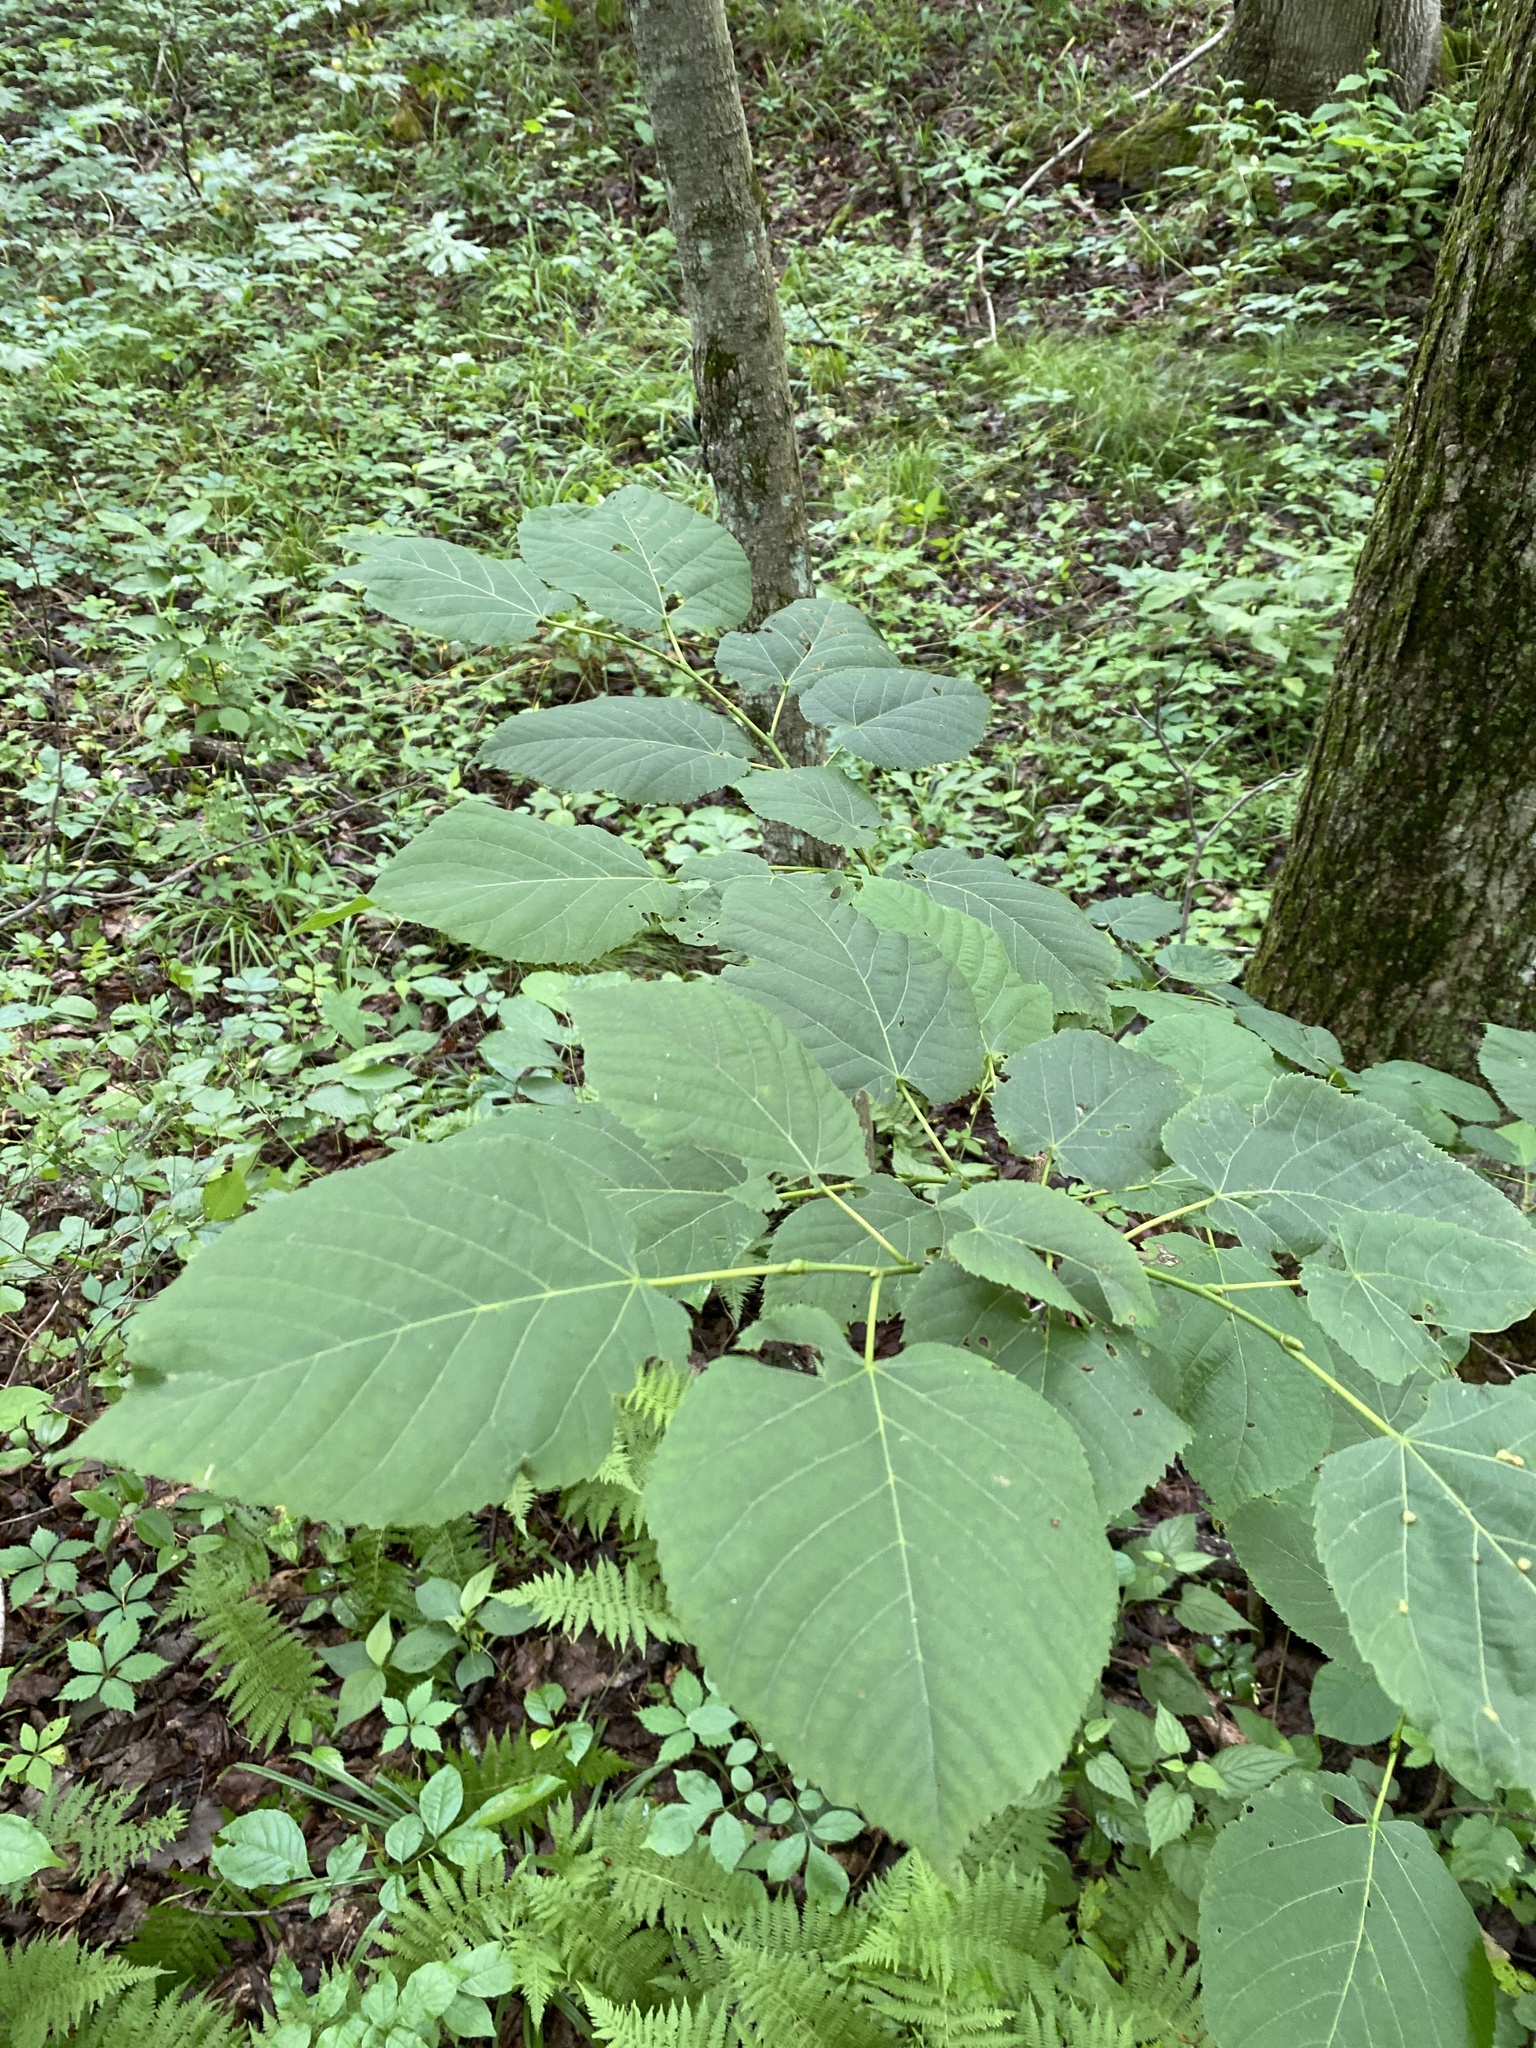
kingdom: Plantae
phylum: Tracheophyta
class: Magnoliopsida
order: Malvales
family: Malvaceae
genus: Tilia
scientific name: Tilia americana
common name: Basswood
